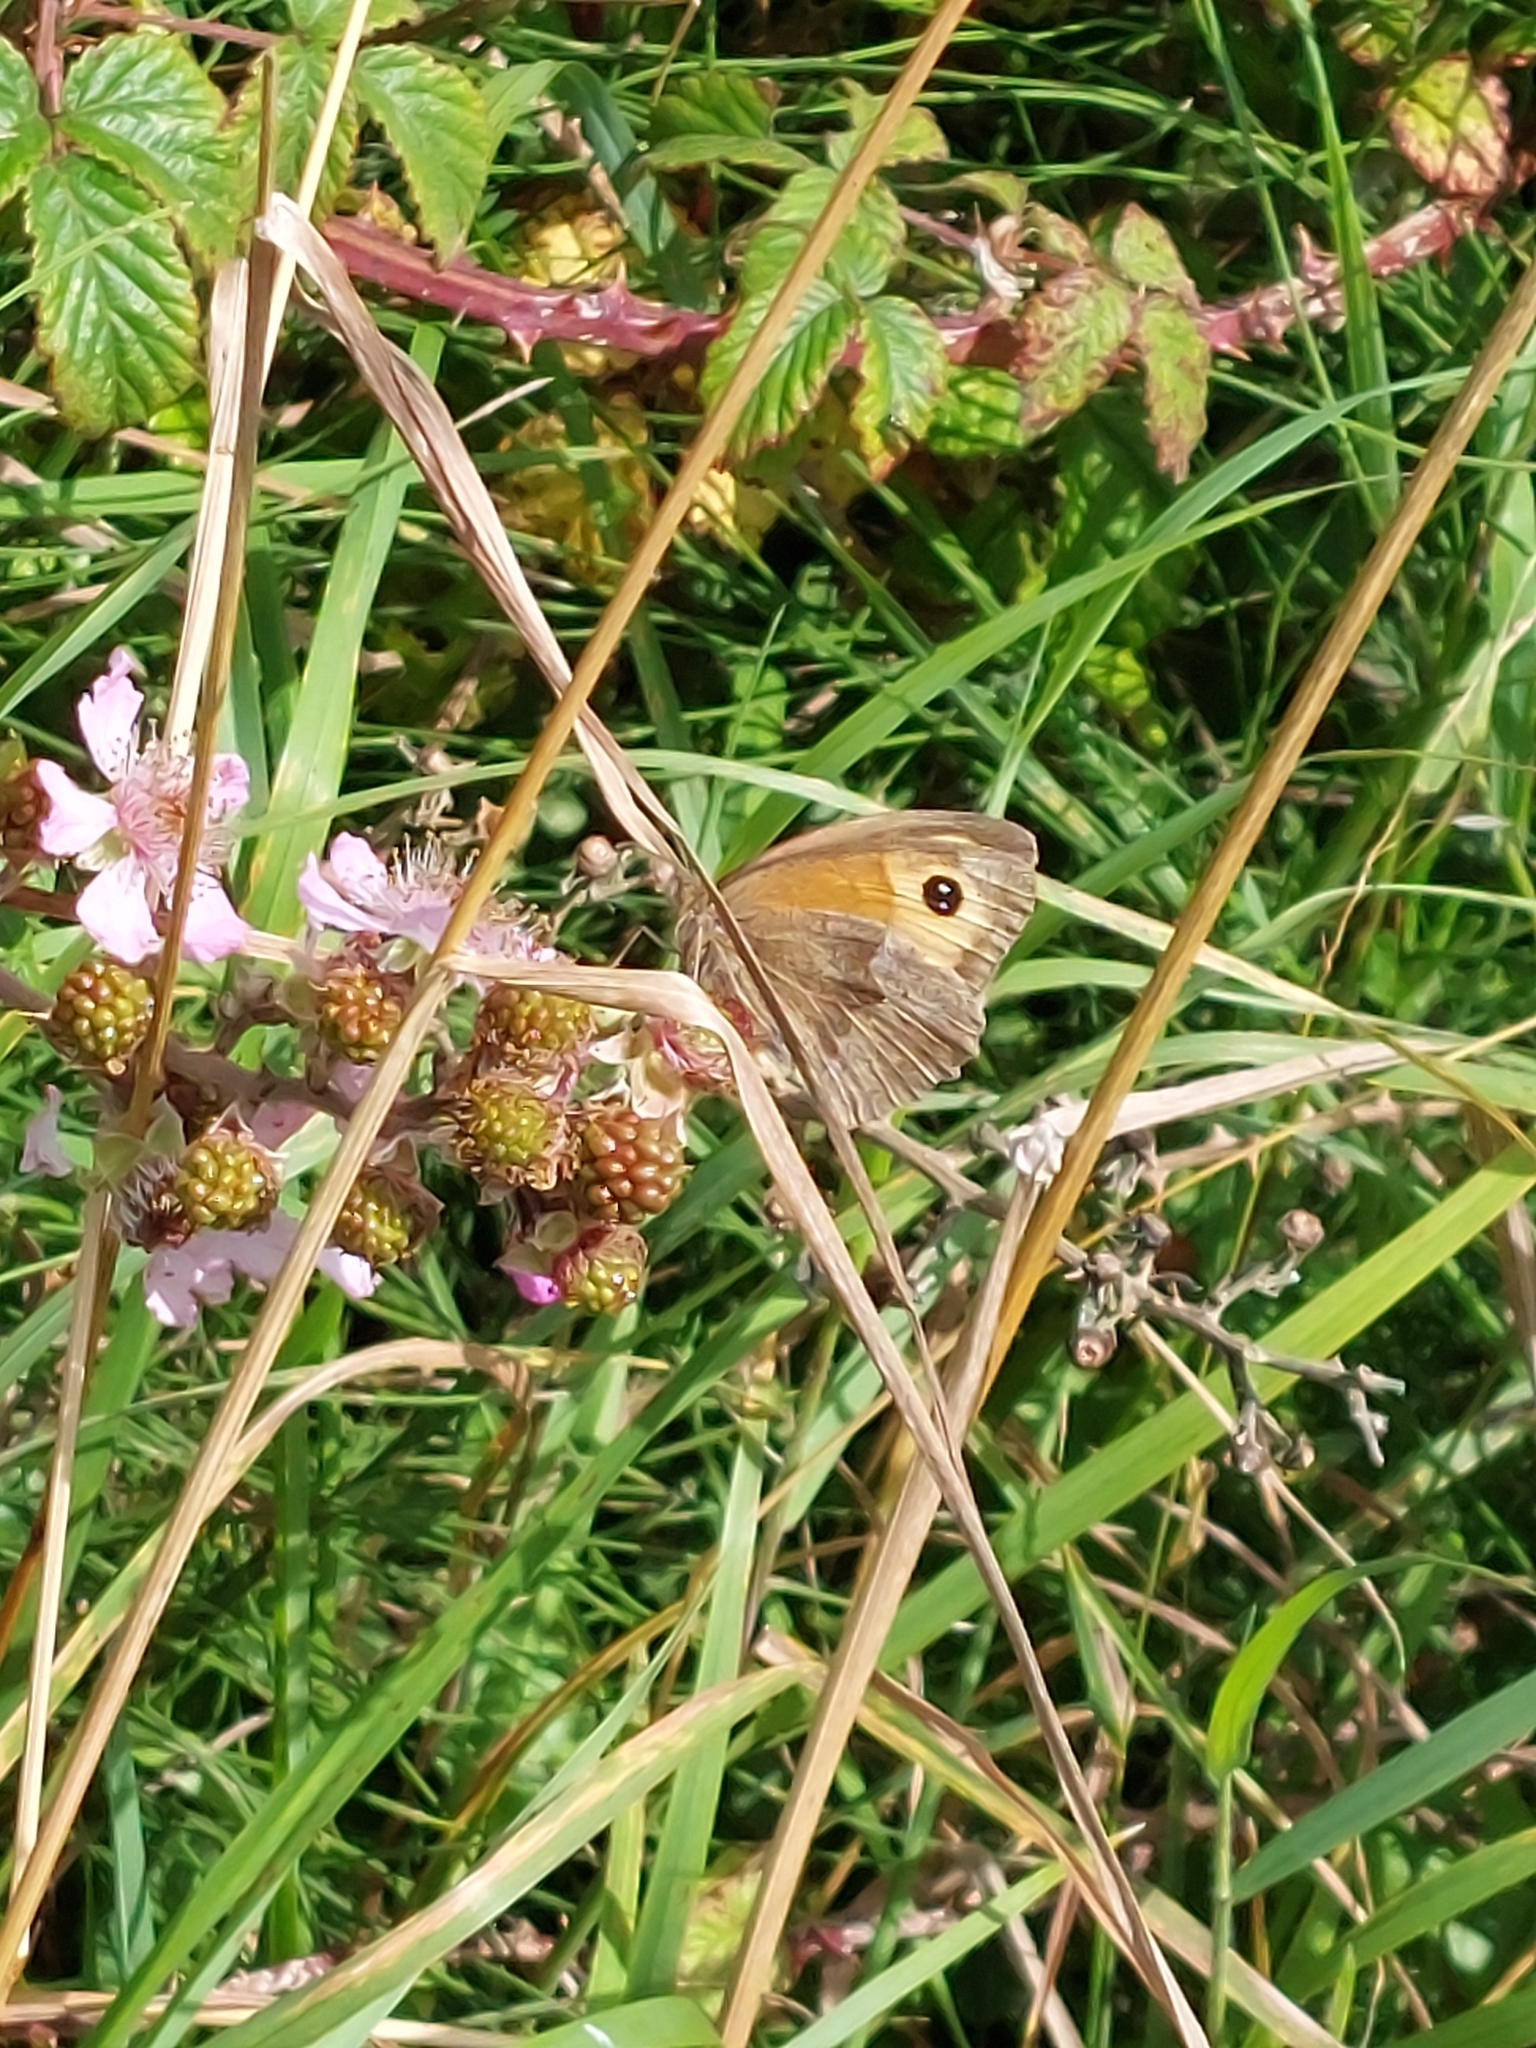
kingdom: Animalia
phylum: Arthropoda
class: Insecta
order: Lepidoptera
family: Nymphalidae
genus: Maniola
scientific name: Maniola jurtina
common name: Meadow brown
